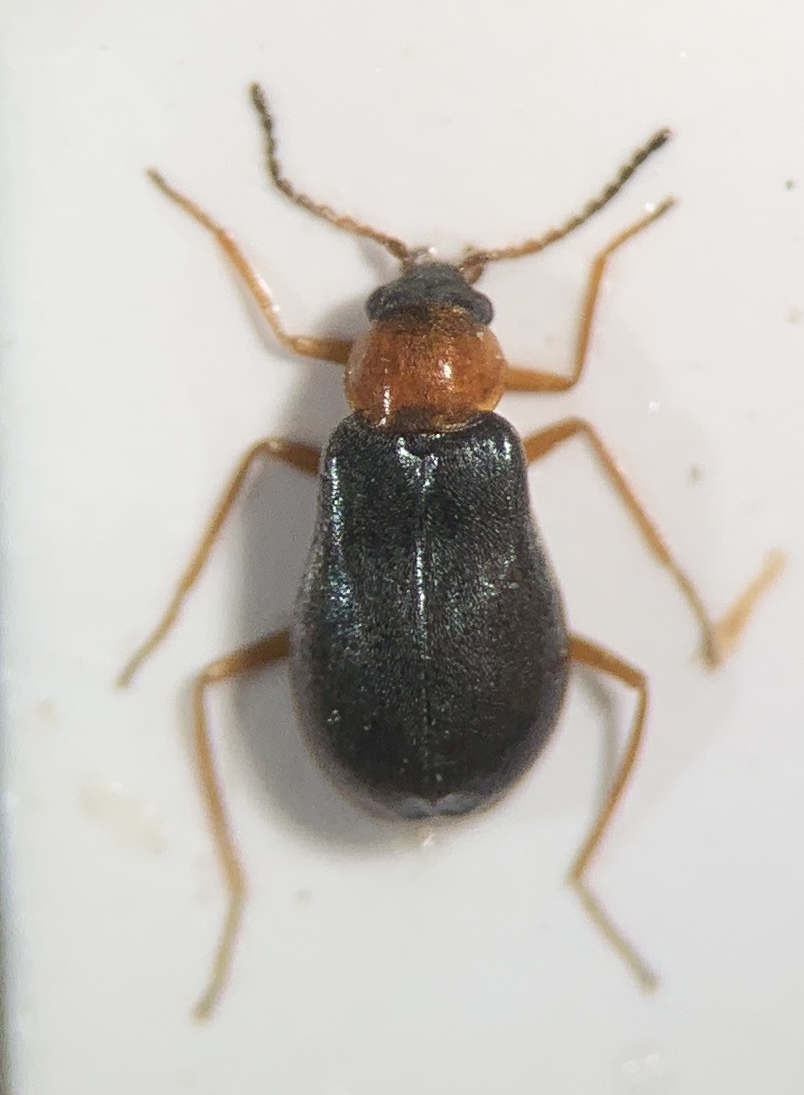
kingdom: Animalia
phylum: Arthropoda
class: Insecta
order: Coleoptera
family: Melyridae
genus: Hypebaeus
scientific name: Hypebaeus flavicollis
